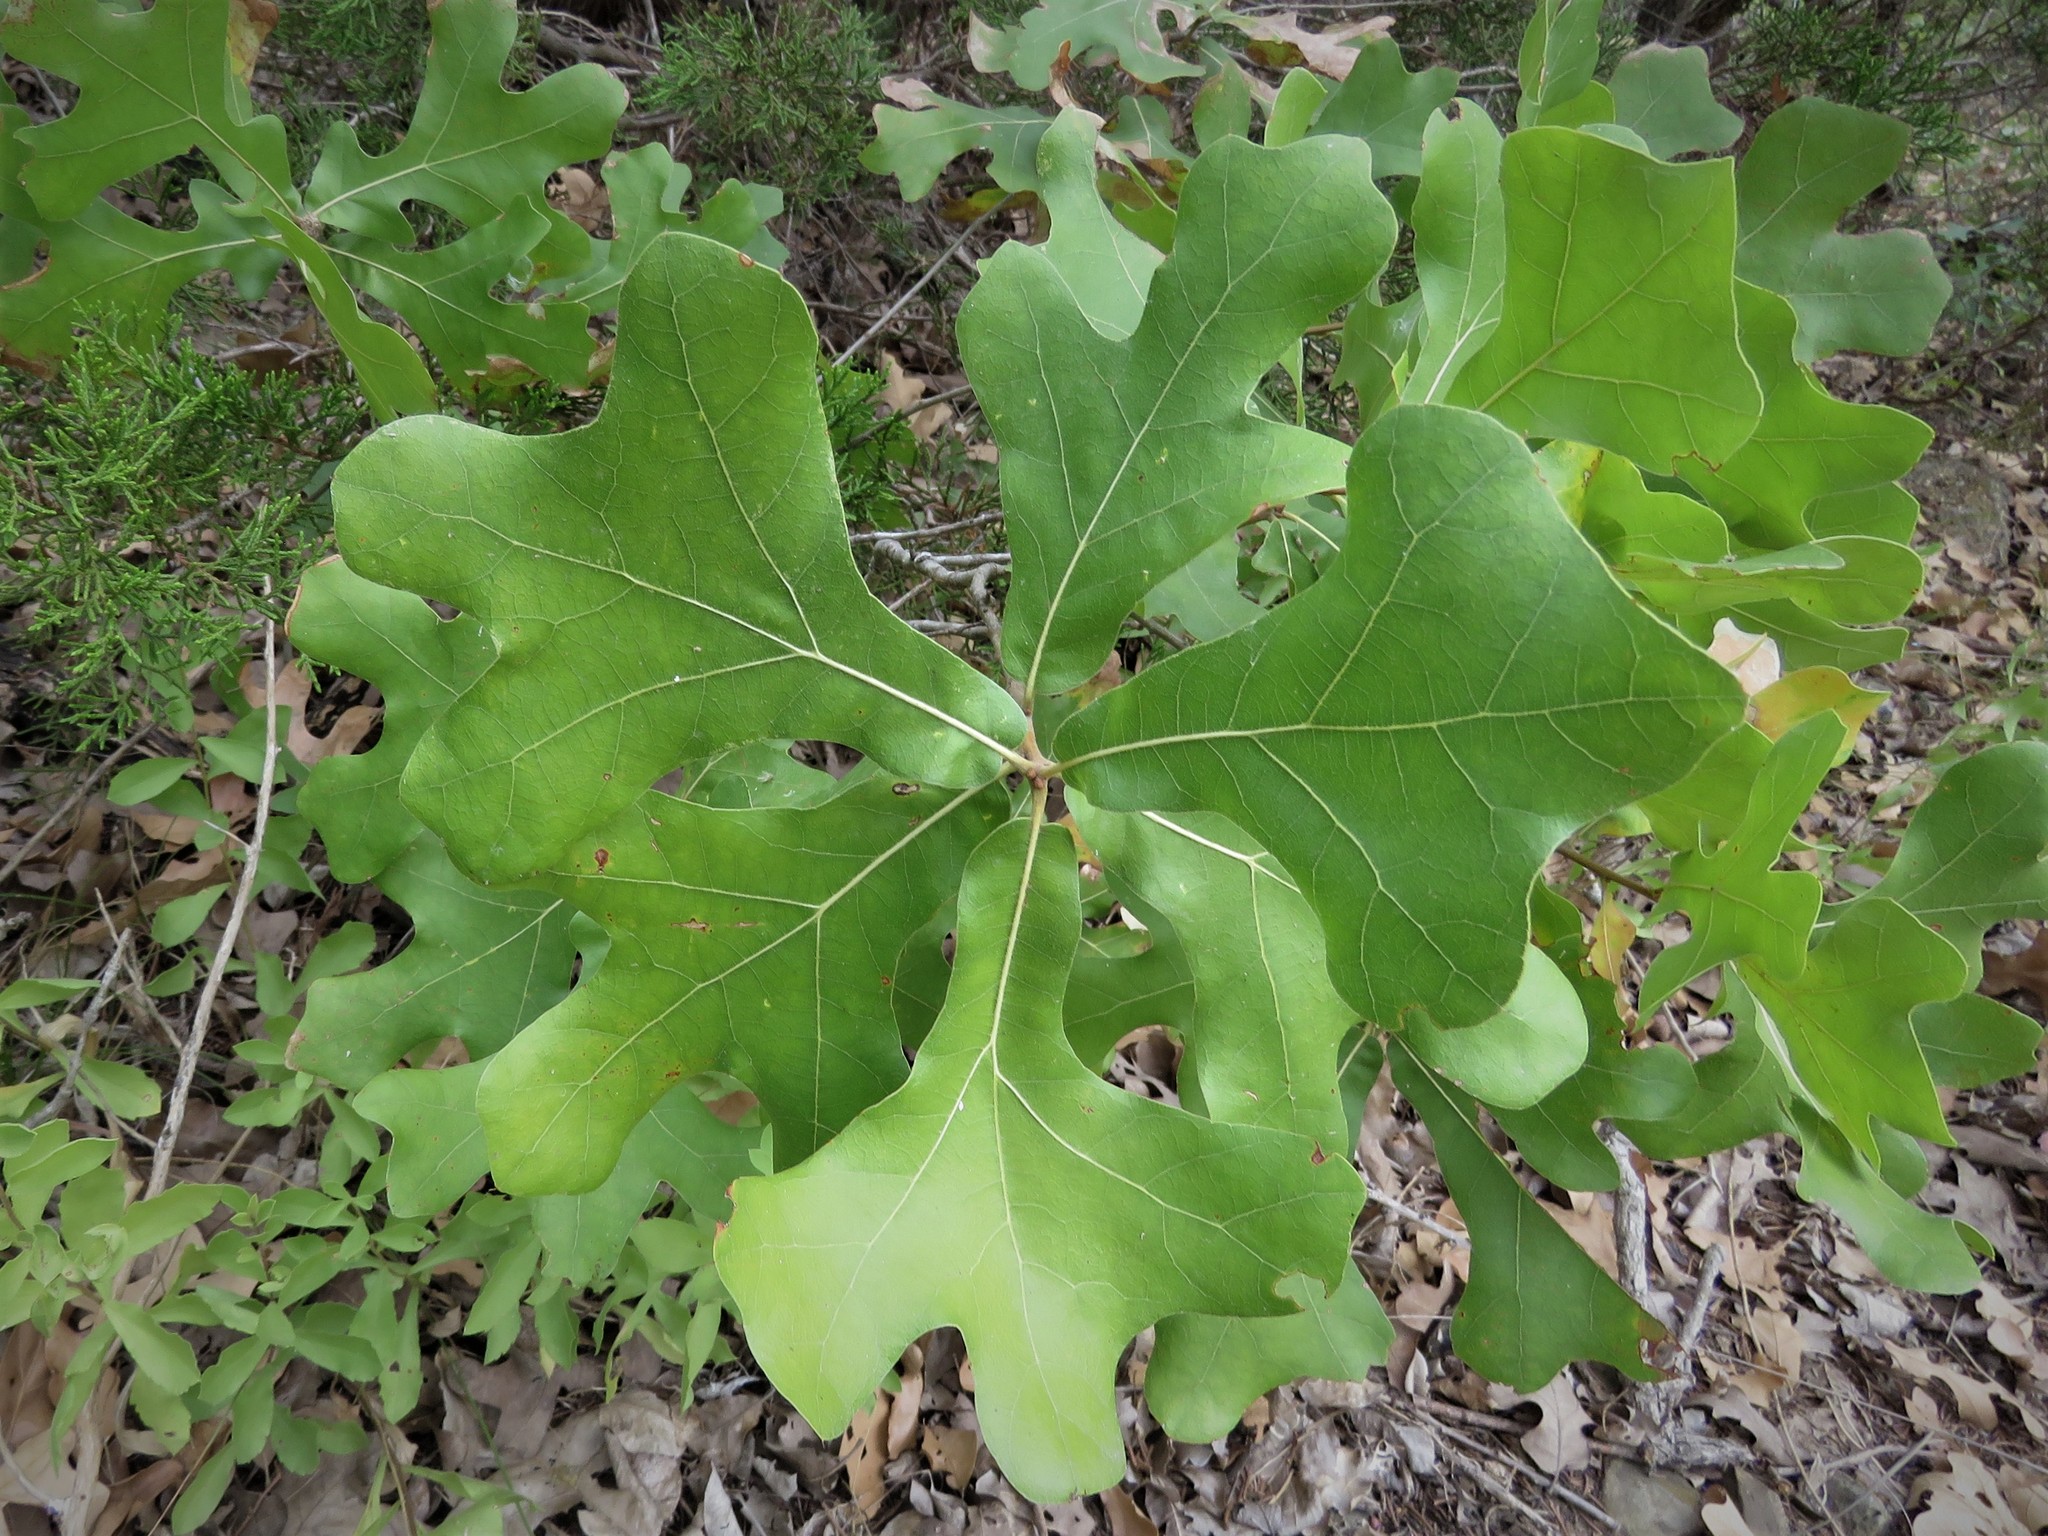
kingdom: Plantae
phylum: Tracheophyta
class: Magnoliopsida
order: Fagales
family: Fagaceae
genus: Quercus
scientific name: Quercus marilandica
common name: Blackjack oak
